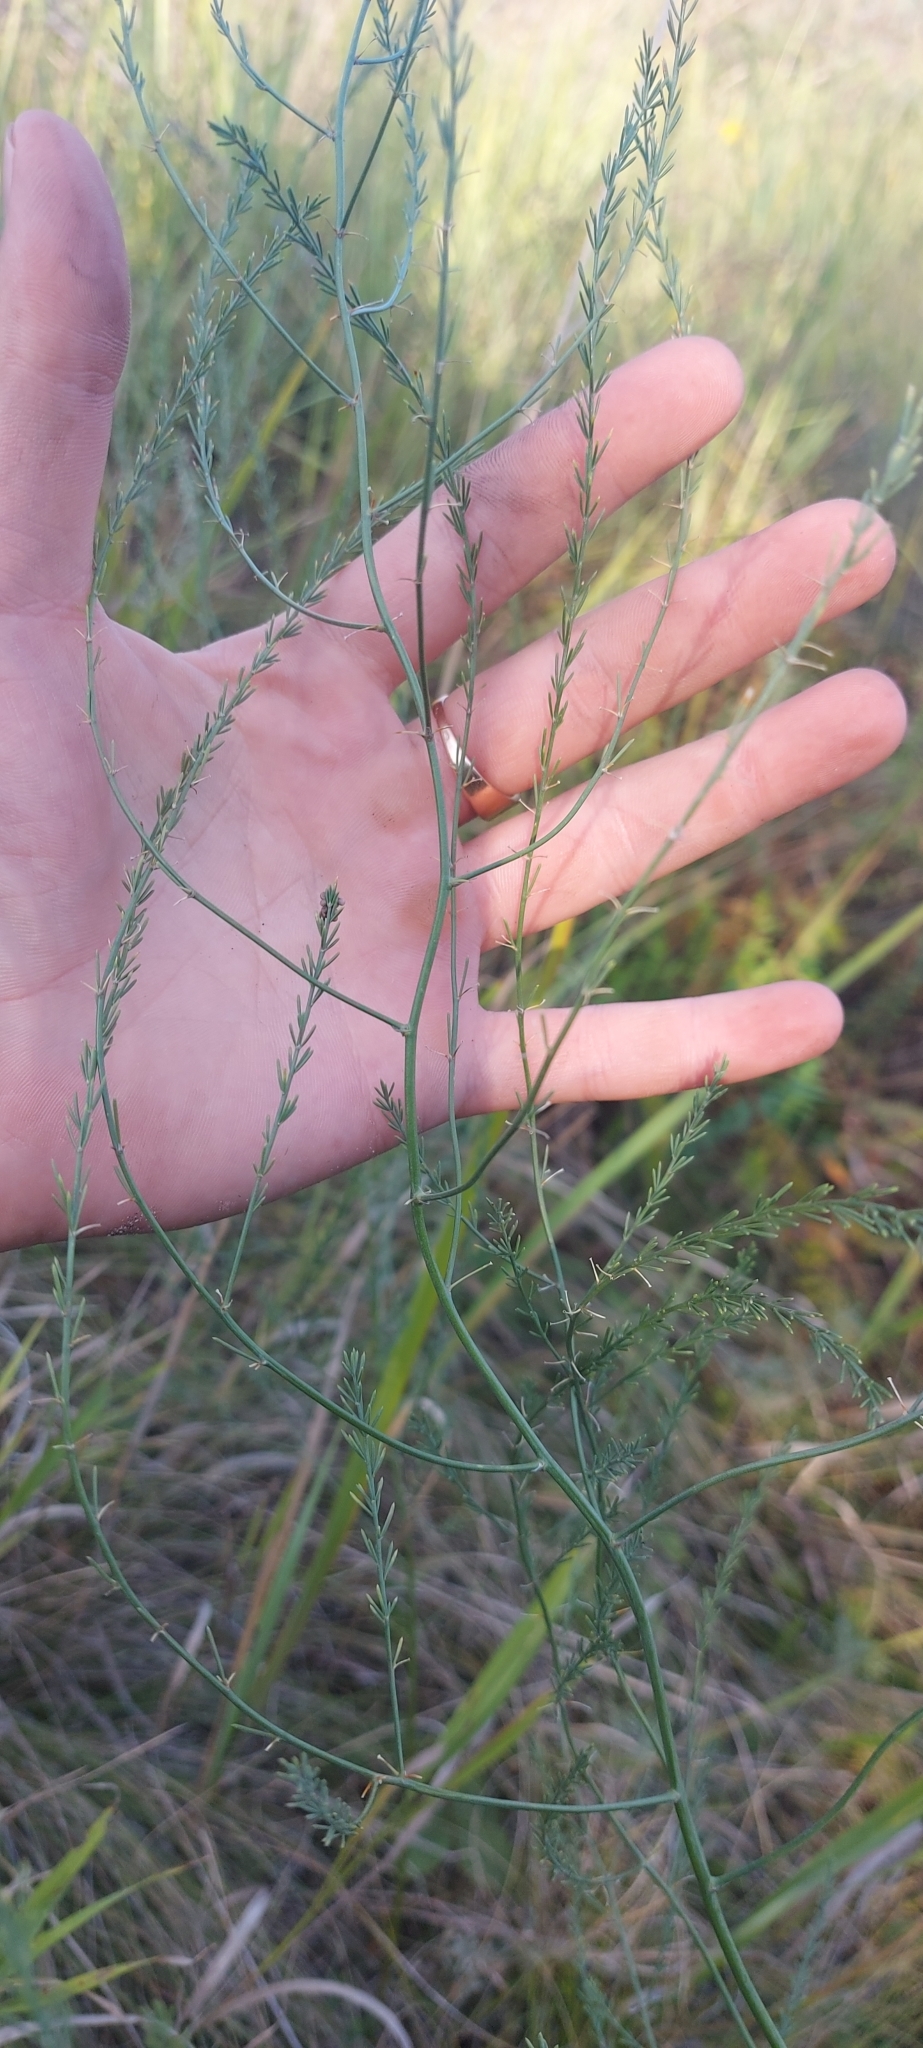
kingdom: Plantae
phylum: Tracheophyta
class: Liliopsida
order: Asparagales
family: Asparagaceae
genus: Asparagus
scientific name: Asparagus officinalis
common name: Garden asparagus
